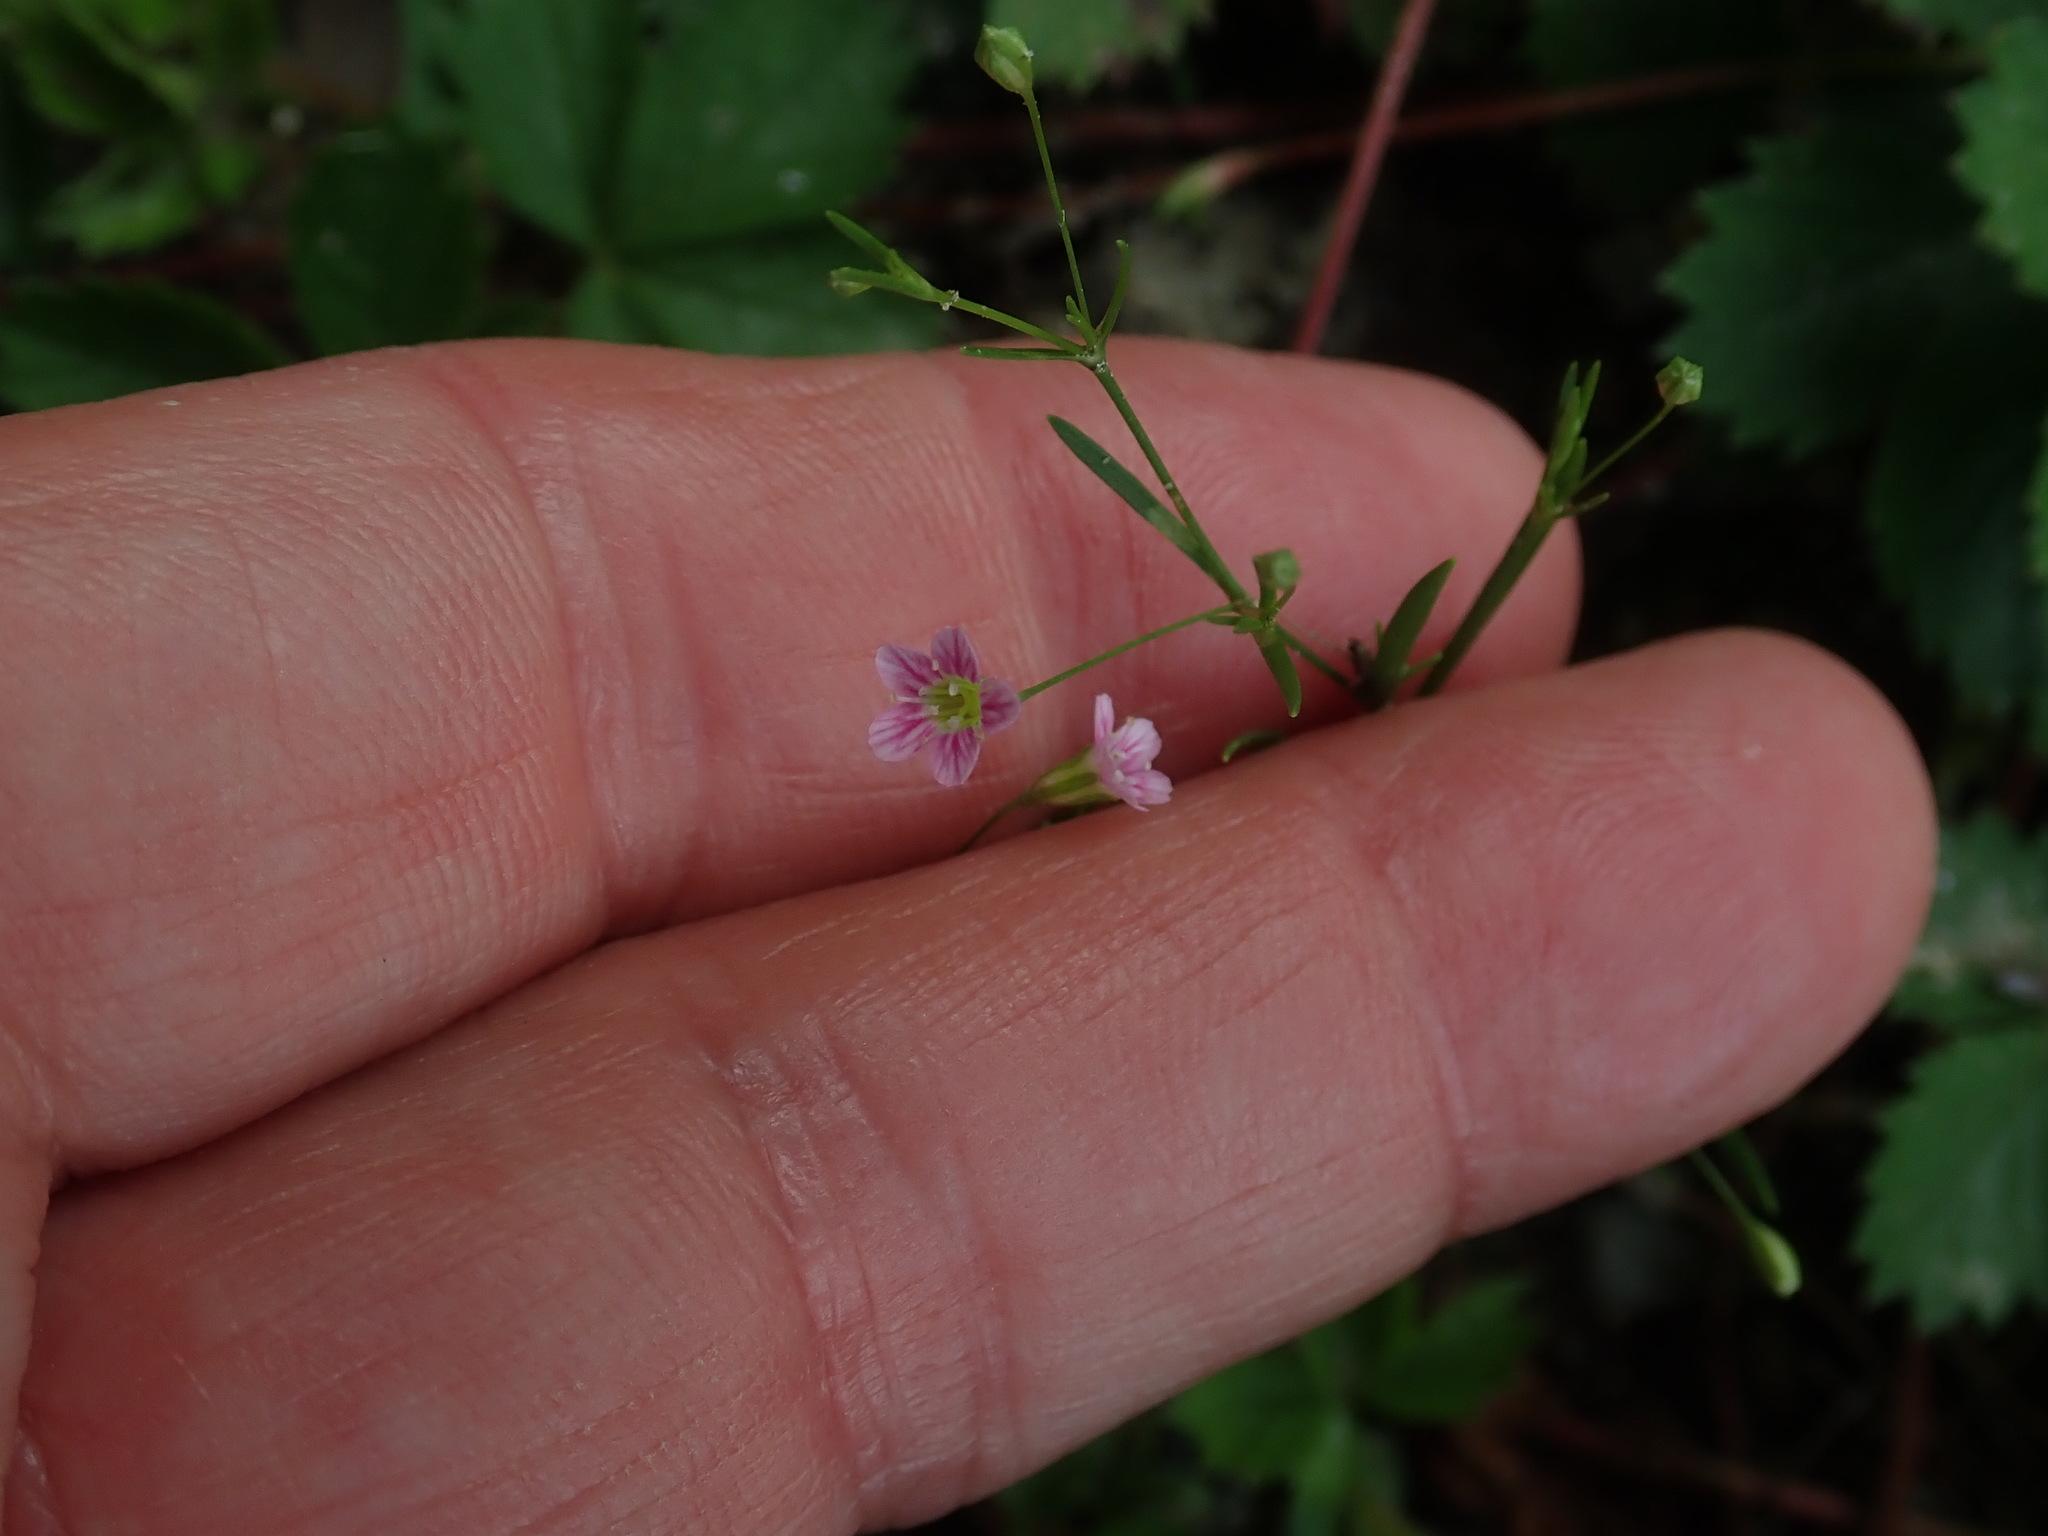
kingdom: Plantae
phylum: Tracheophyta
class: Magnoliopsida
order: Caryophyllales
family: Caryophyllaceae
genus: Psammophiliella
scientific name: Psammophiliella muralis
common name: Cushion baby's-breath
